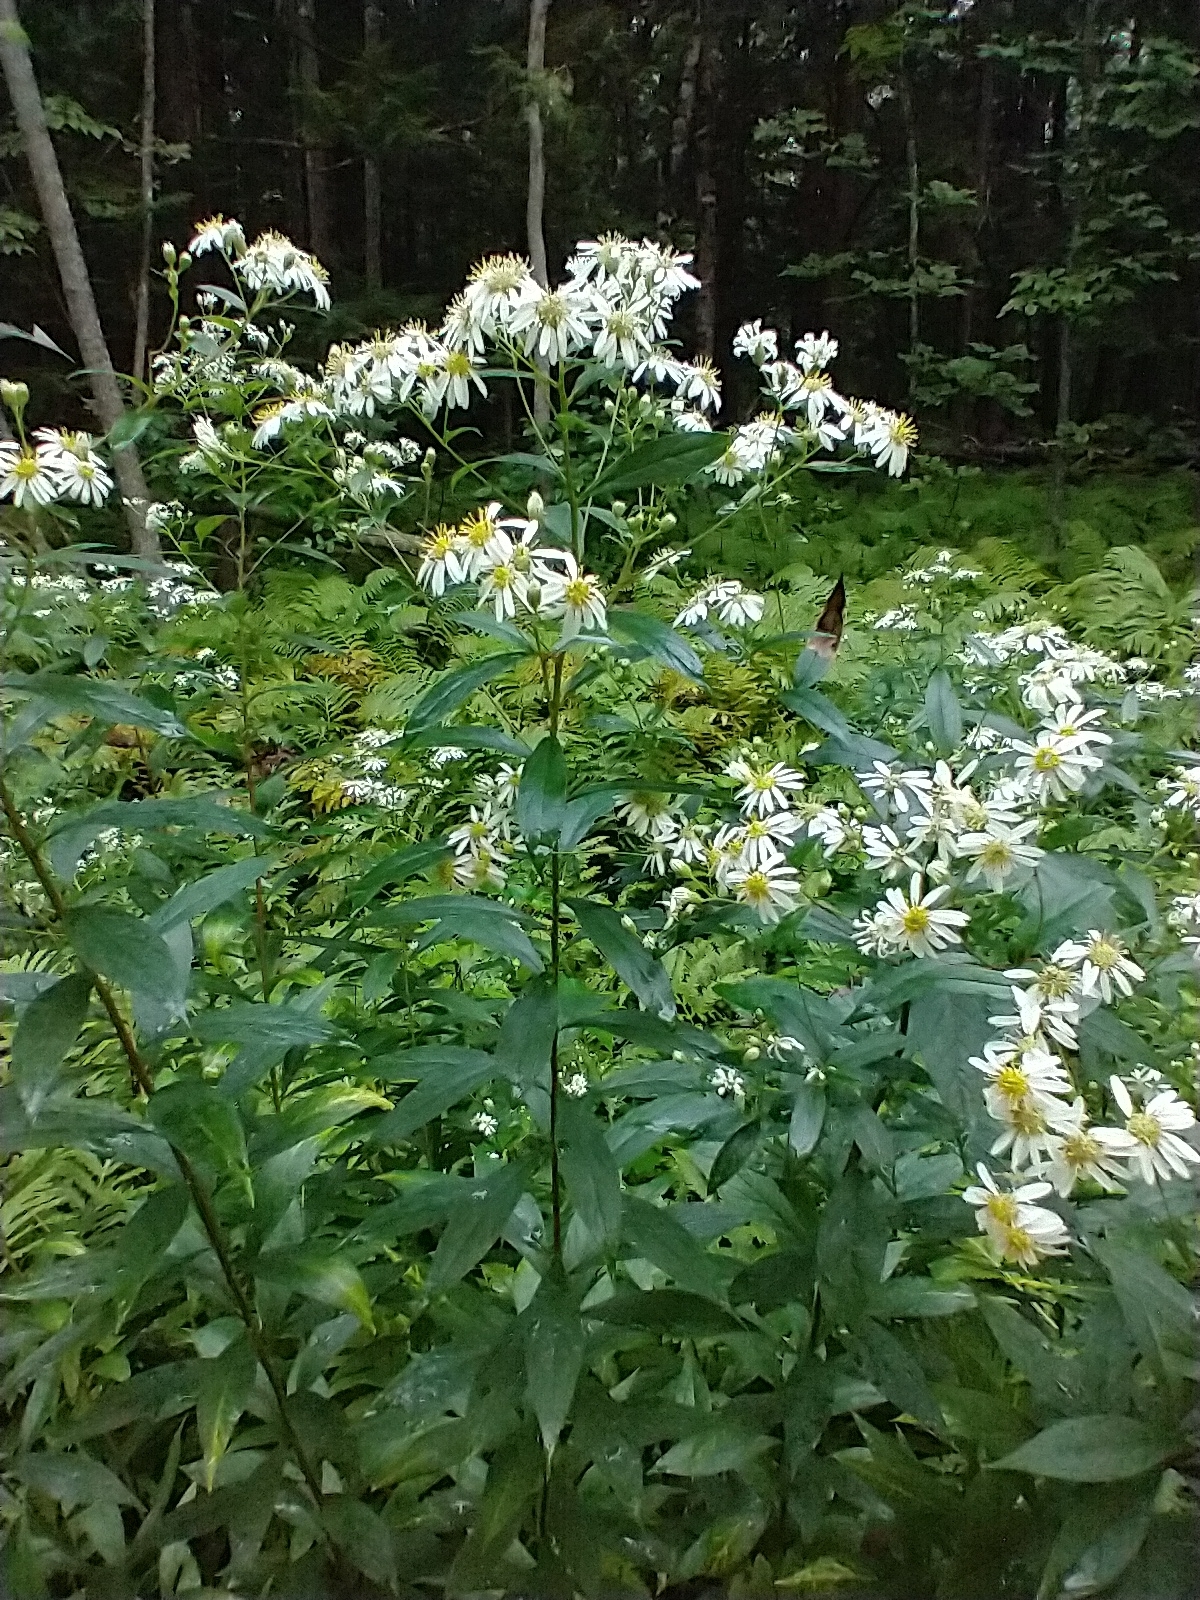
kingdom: Plantae
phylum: Tracheophyta
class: Magnoliopsida
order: Asterales
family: Asteraceae
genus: Doellingeria
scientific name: Doellingeria umbellata
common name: Flat-top white aster
